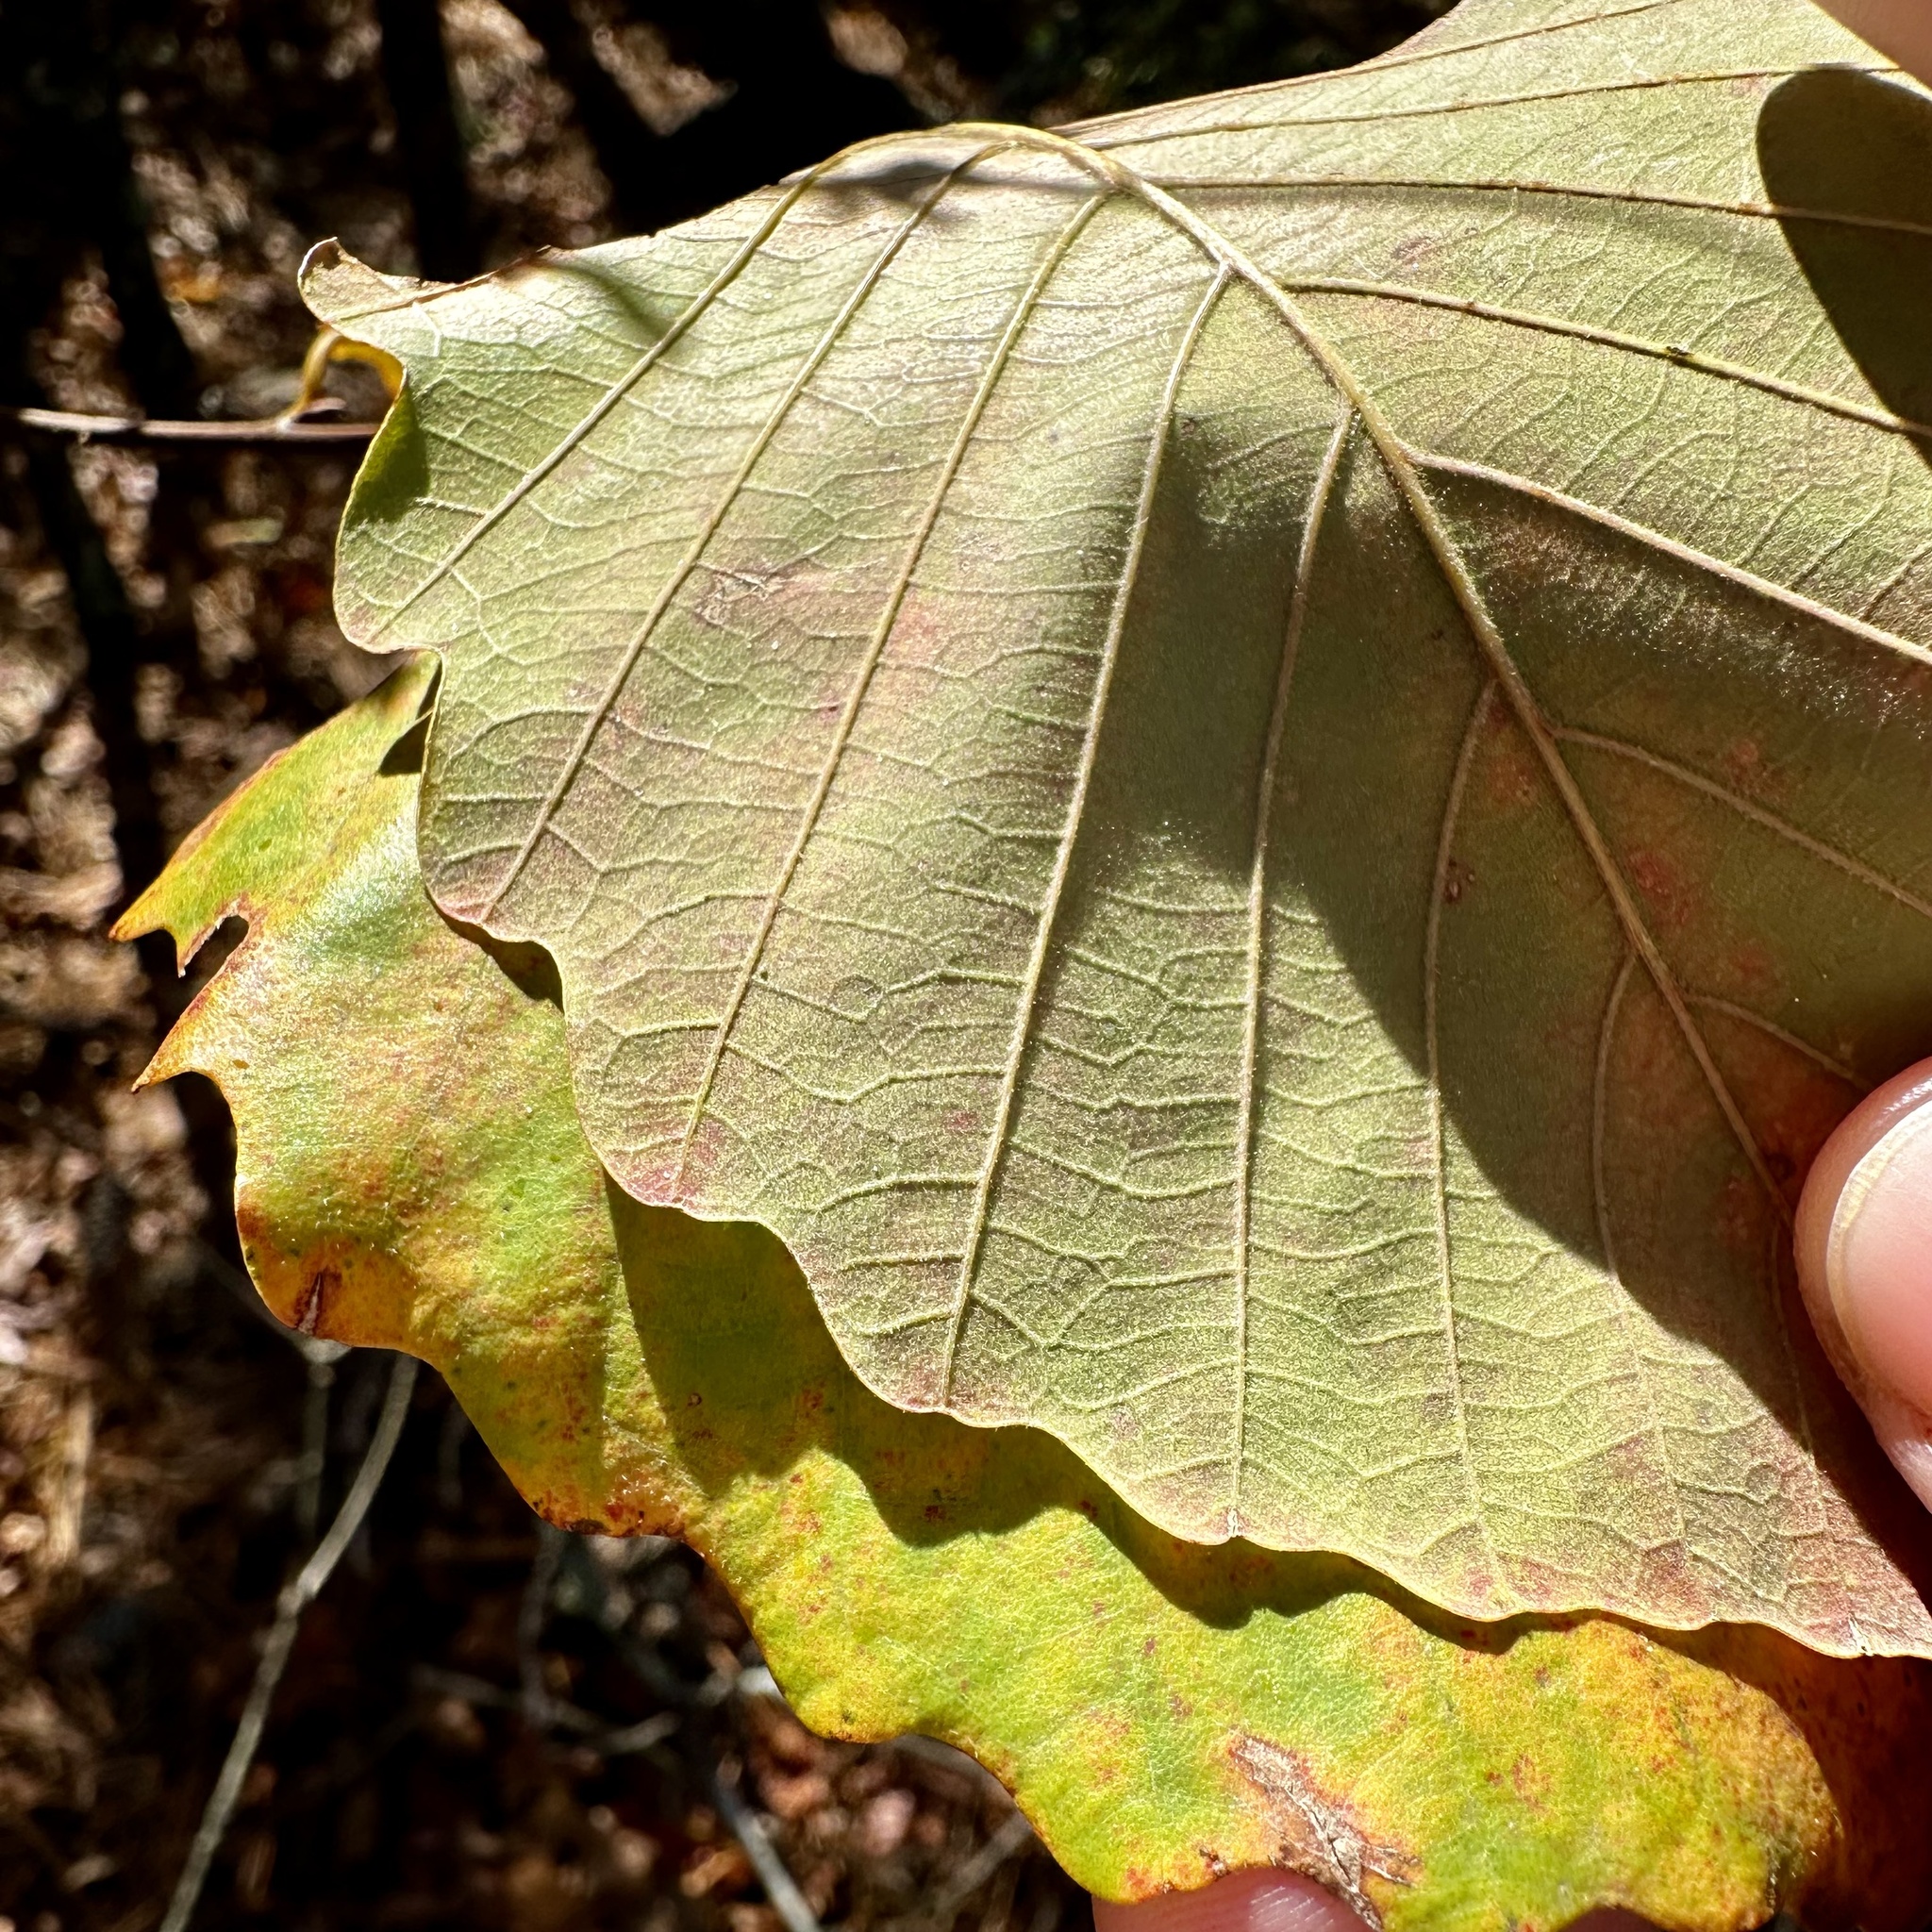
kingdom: Plantae
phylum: Tracheophyta
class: Magnoliopsida
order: Fagales
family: Fagaceae
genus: Quercus
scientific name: Quercus montana
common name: Chestnut oak
